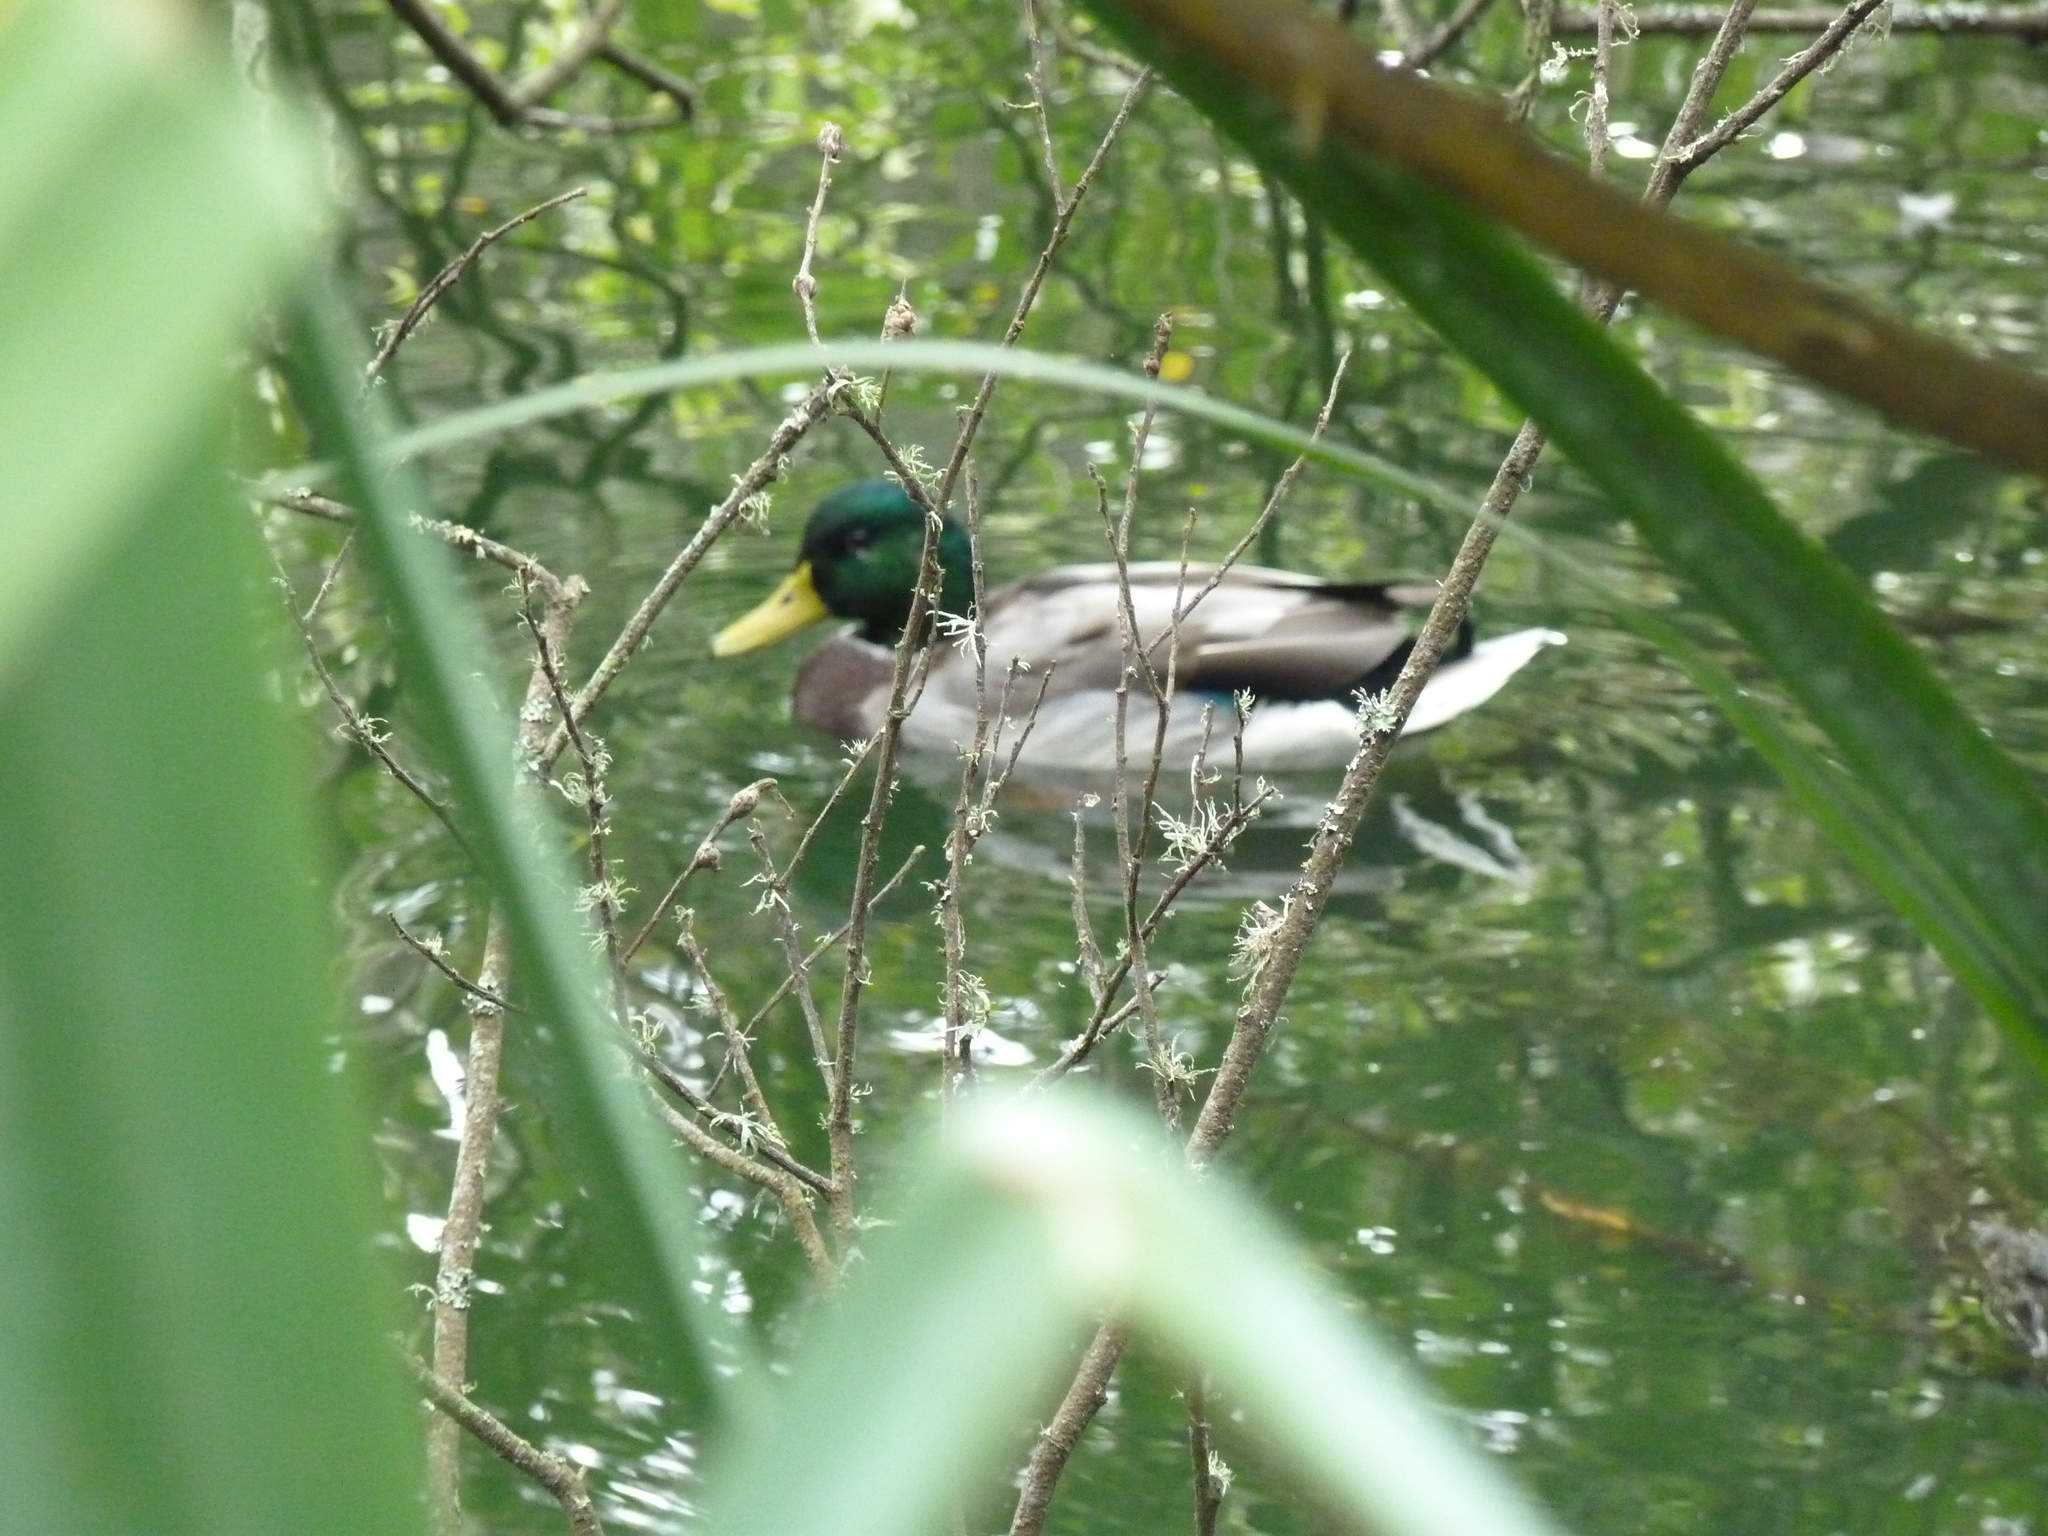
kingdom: Animalia
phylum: Chordata
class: Aves
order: Anseriformes
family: Anatidae
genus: Anas
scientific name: Anas platyrhynchos
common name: Mallard
